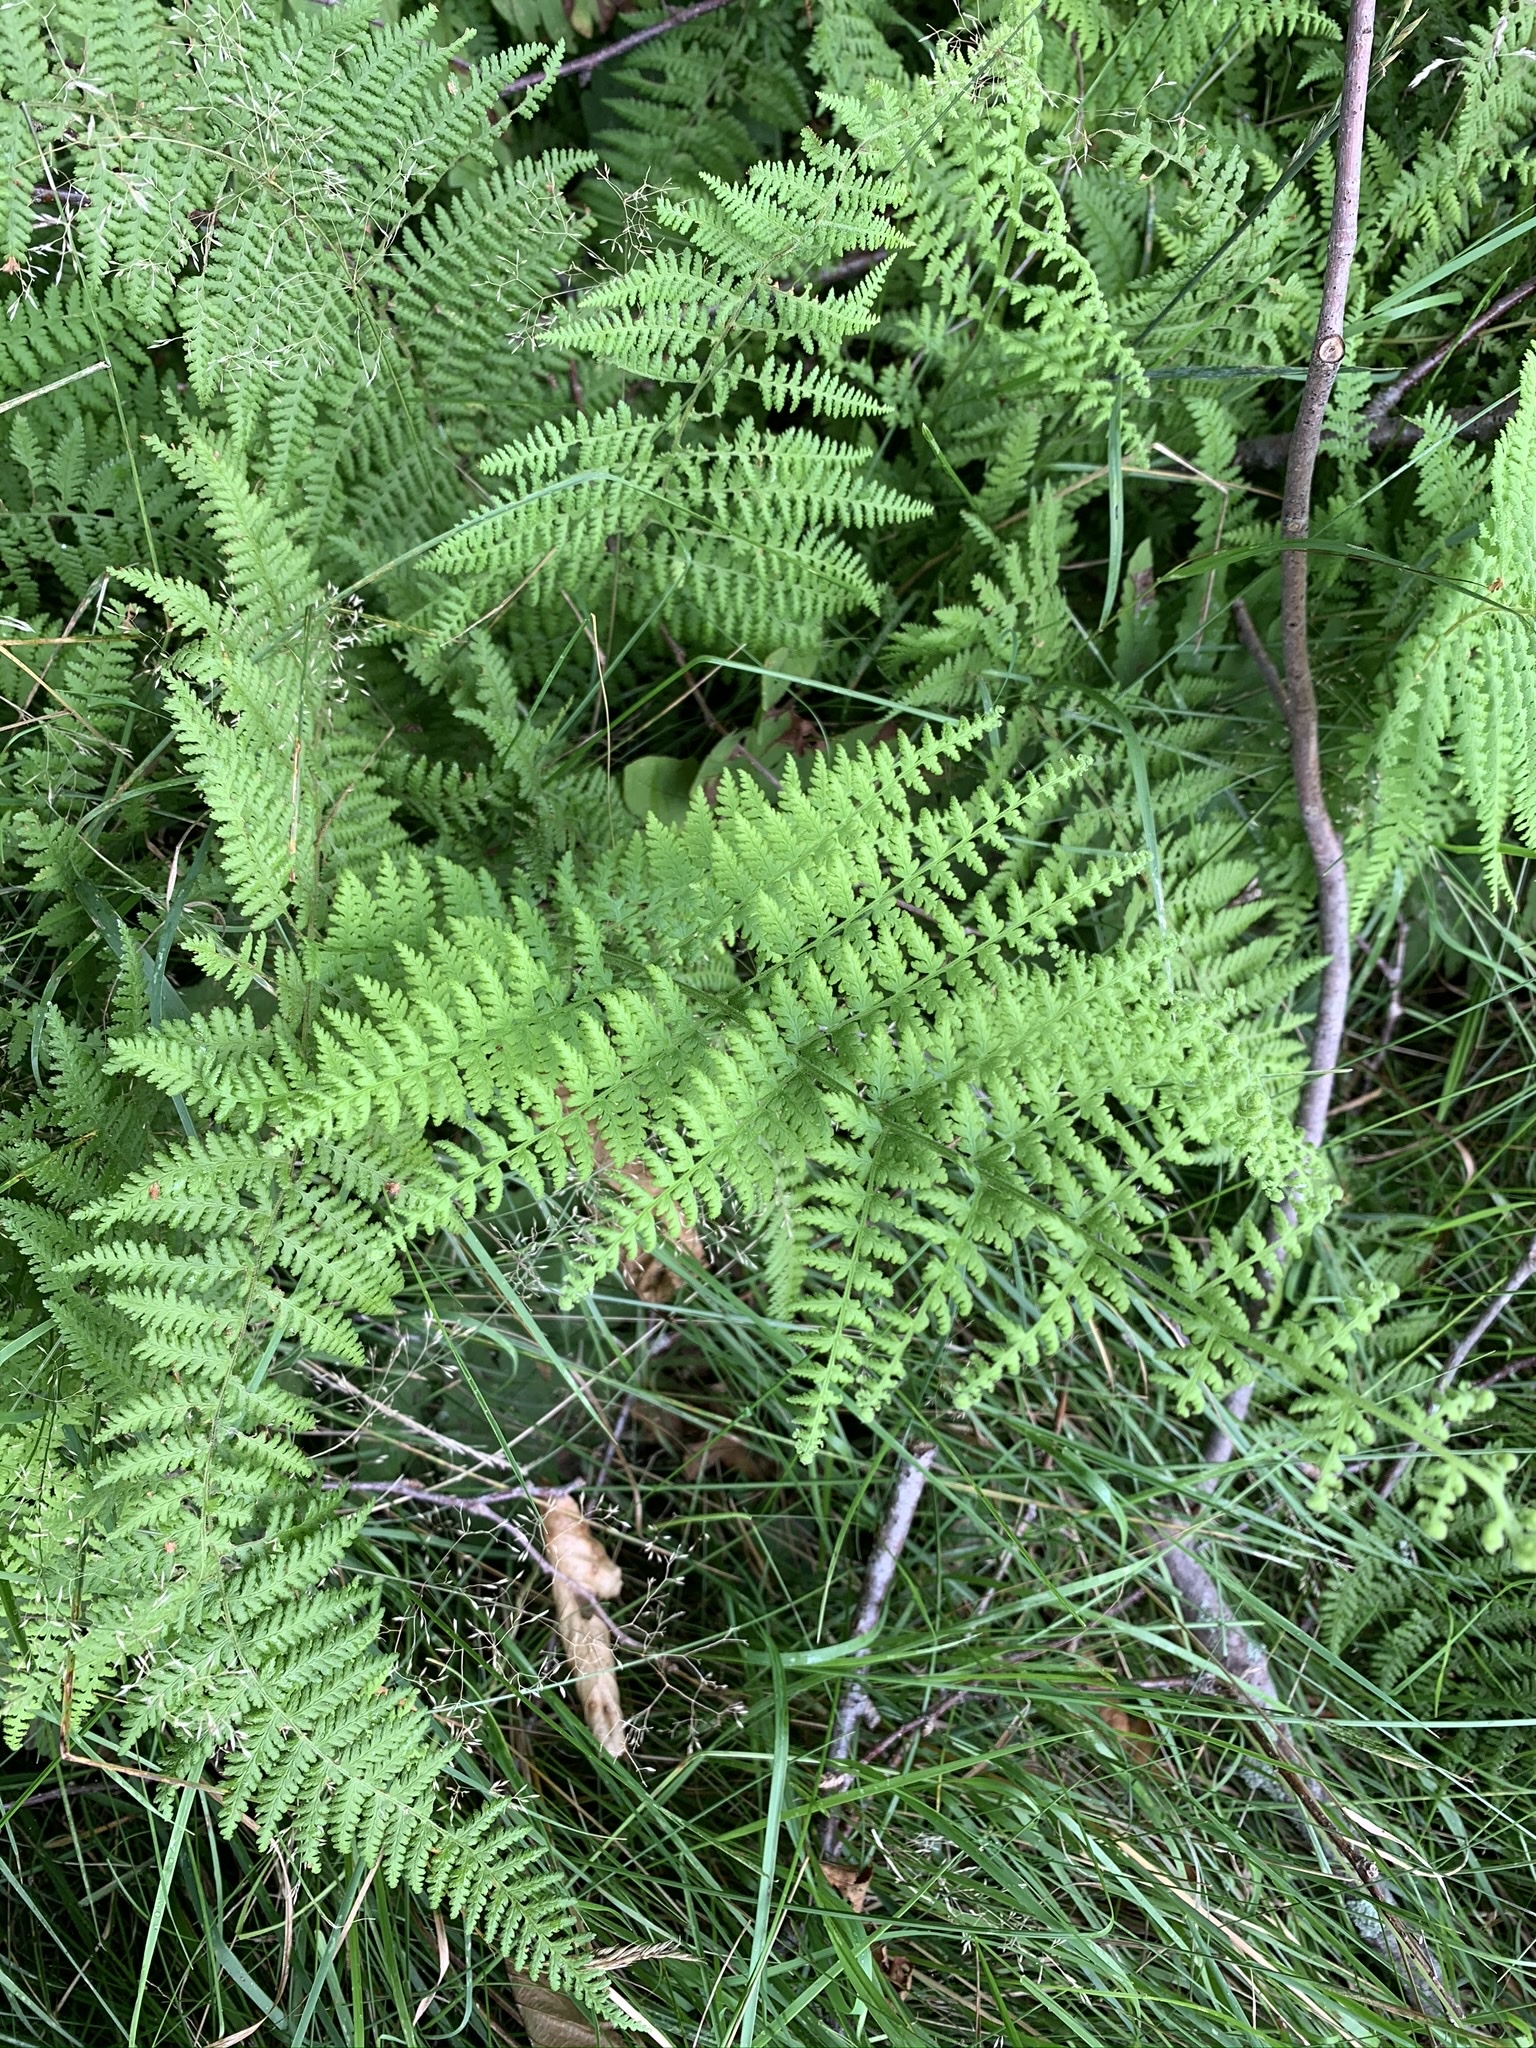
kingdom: Plantae
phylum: Tracheophyta
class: Polypodiopsida
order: Polypodiales
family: Dennstaedtiaceae
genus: Sitobolium
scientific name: Sitobolium punctilobum
